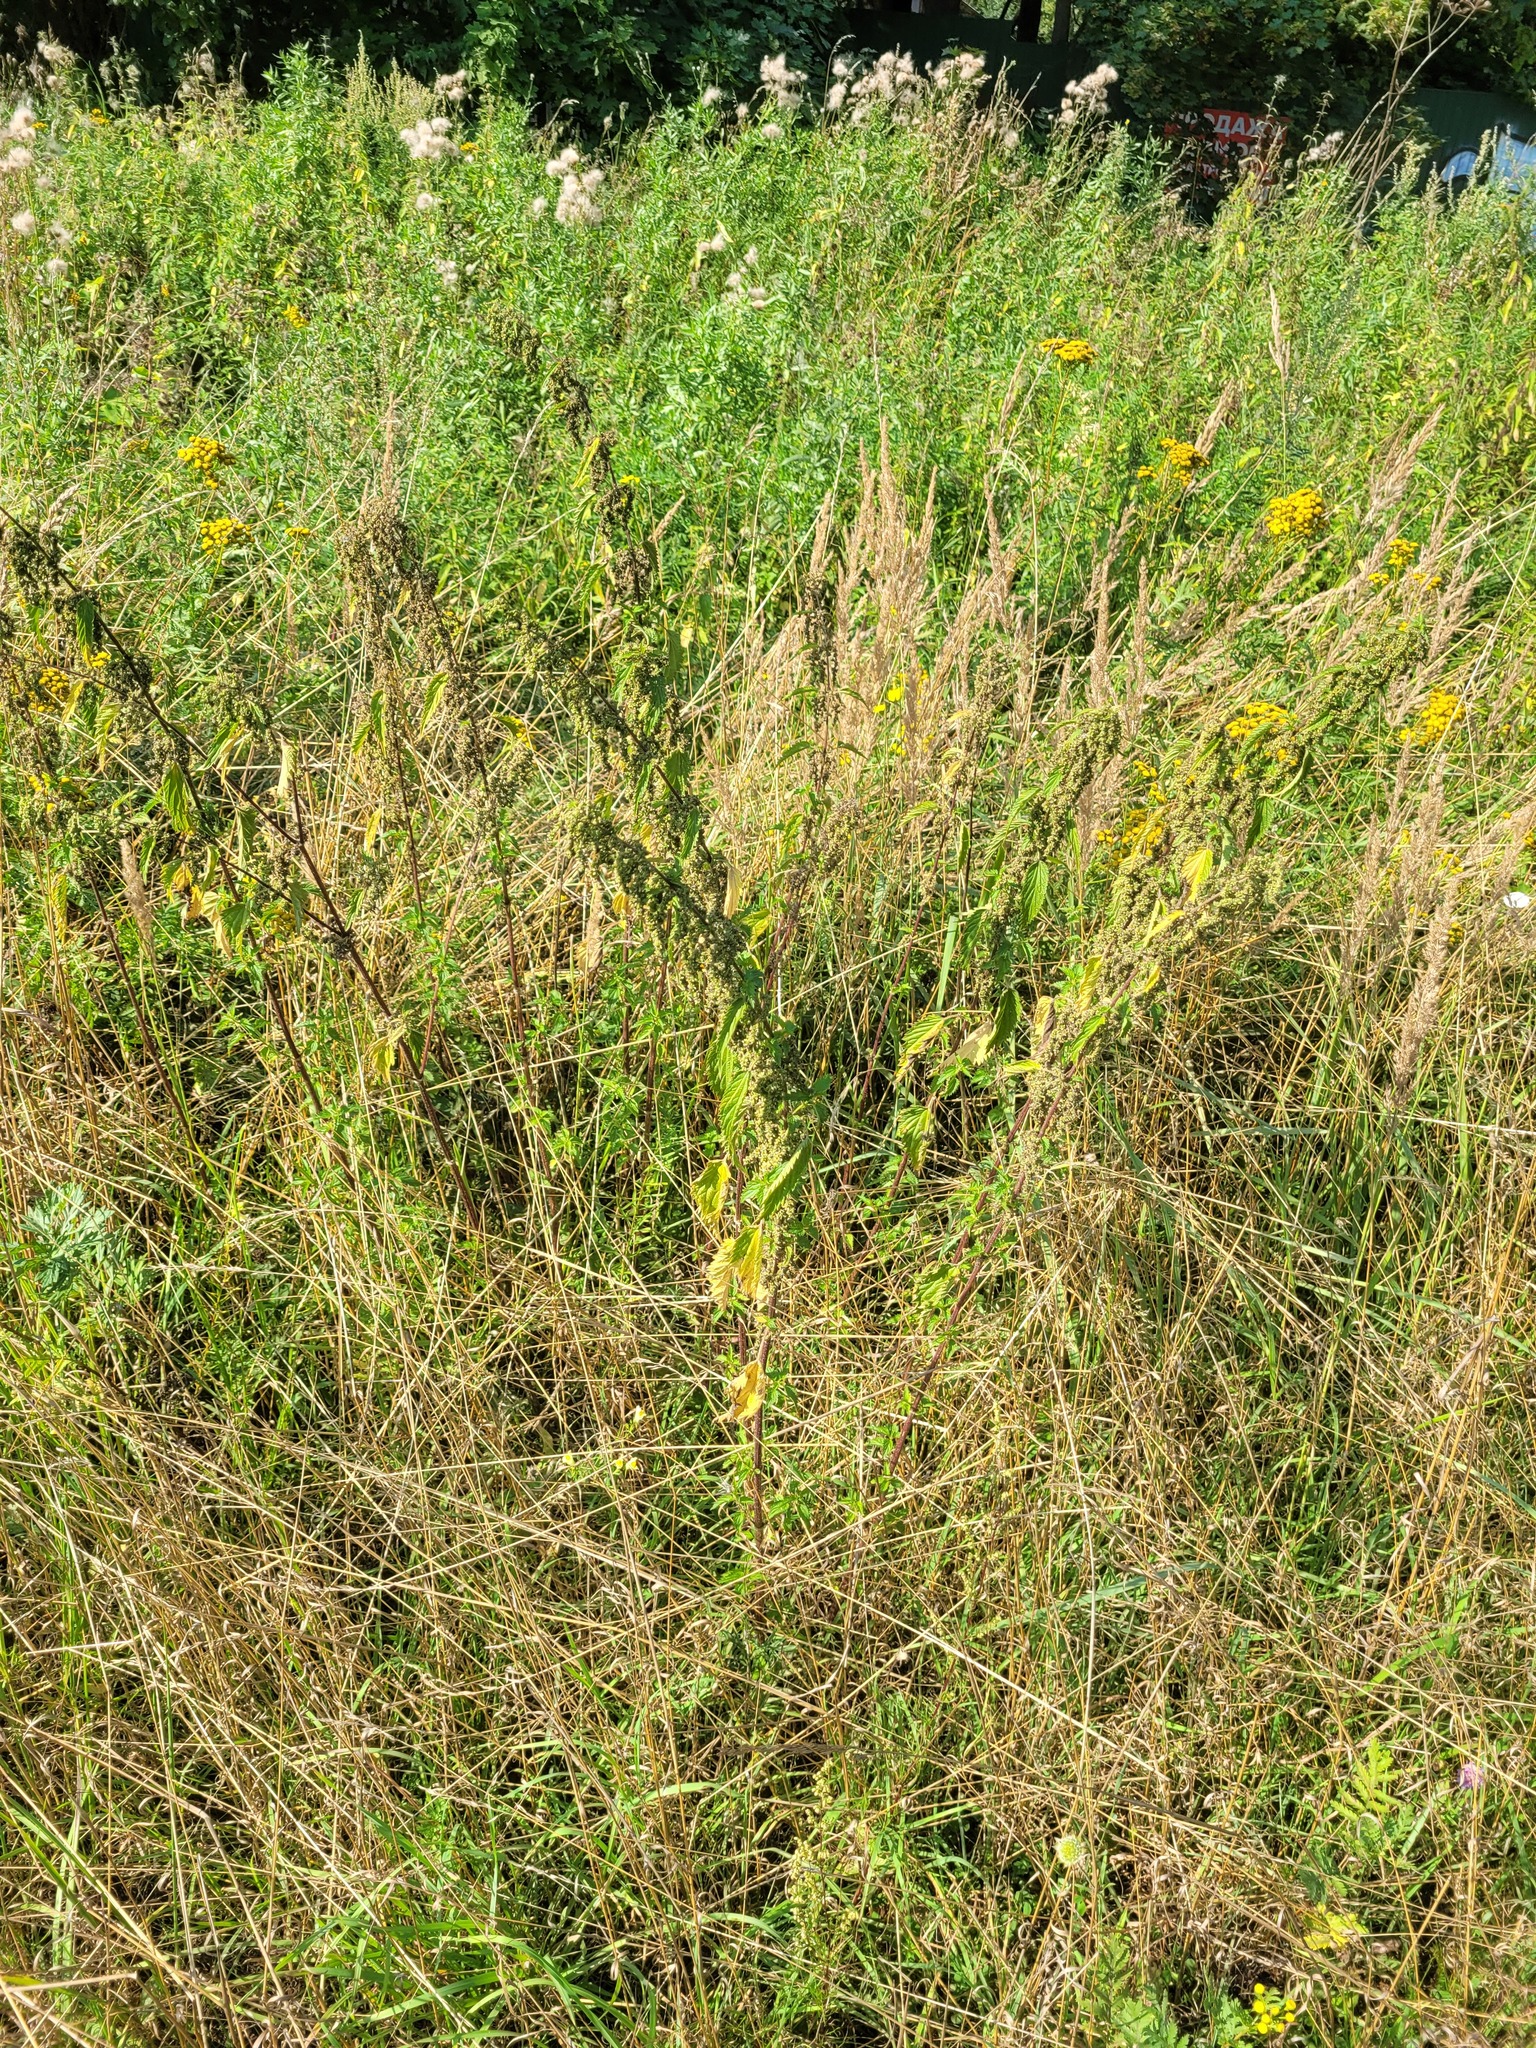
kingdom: Plantae
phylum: Tracheophyta
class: Magnoliopsida
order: Rosales
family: Urticaceae
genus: Urtica
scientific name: Urtica dioica
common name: Common nettle
